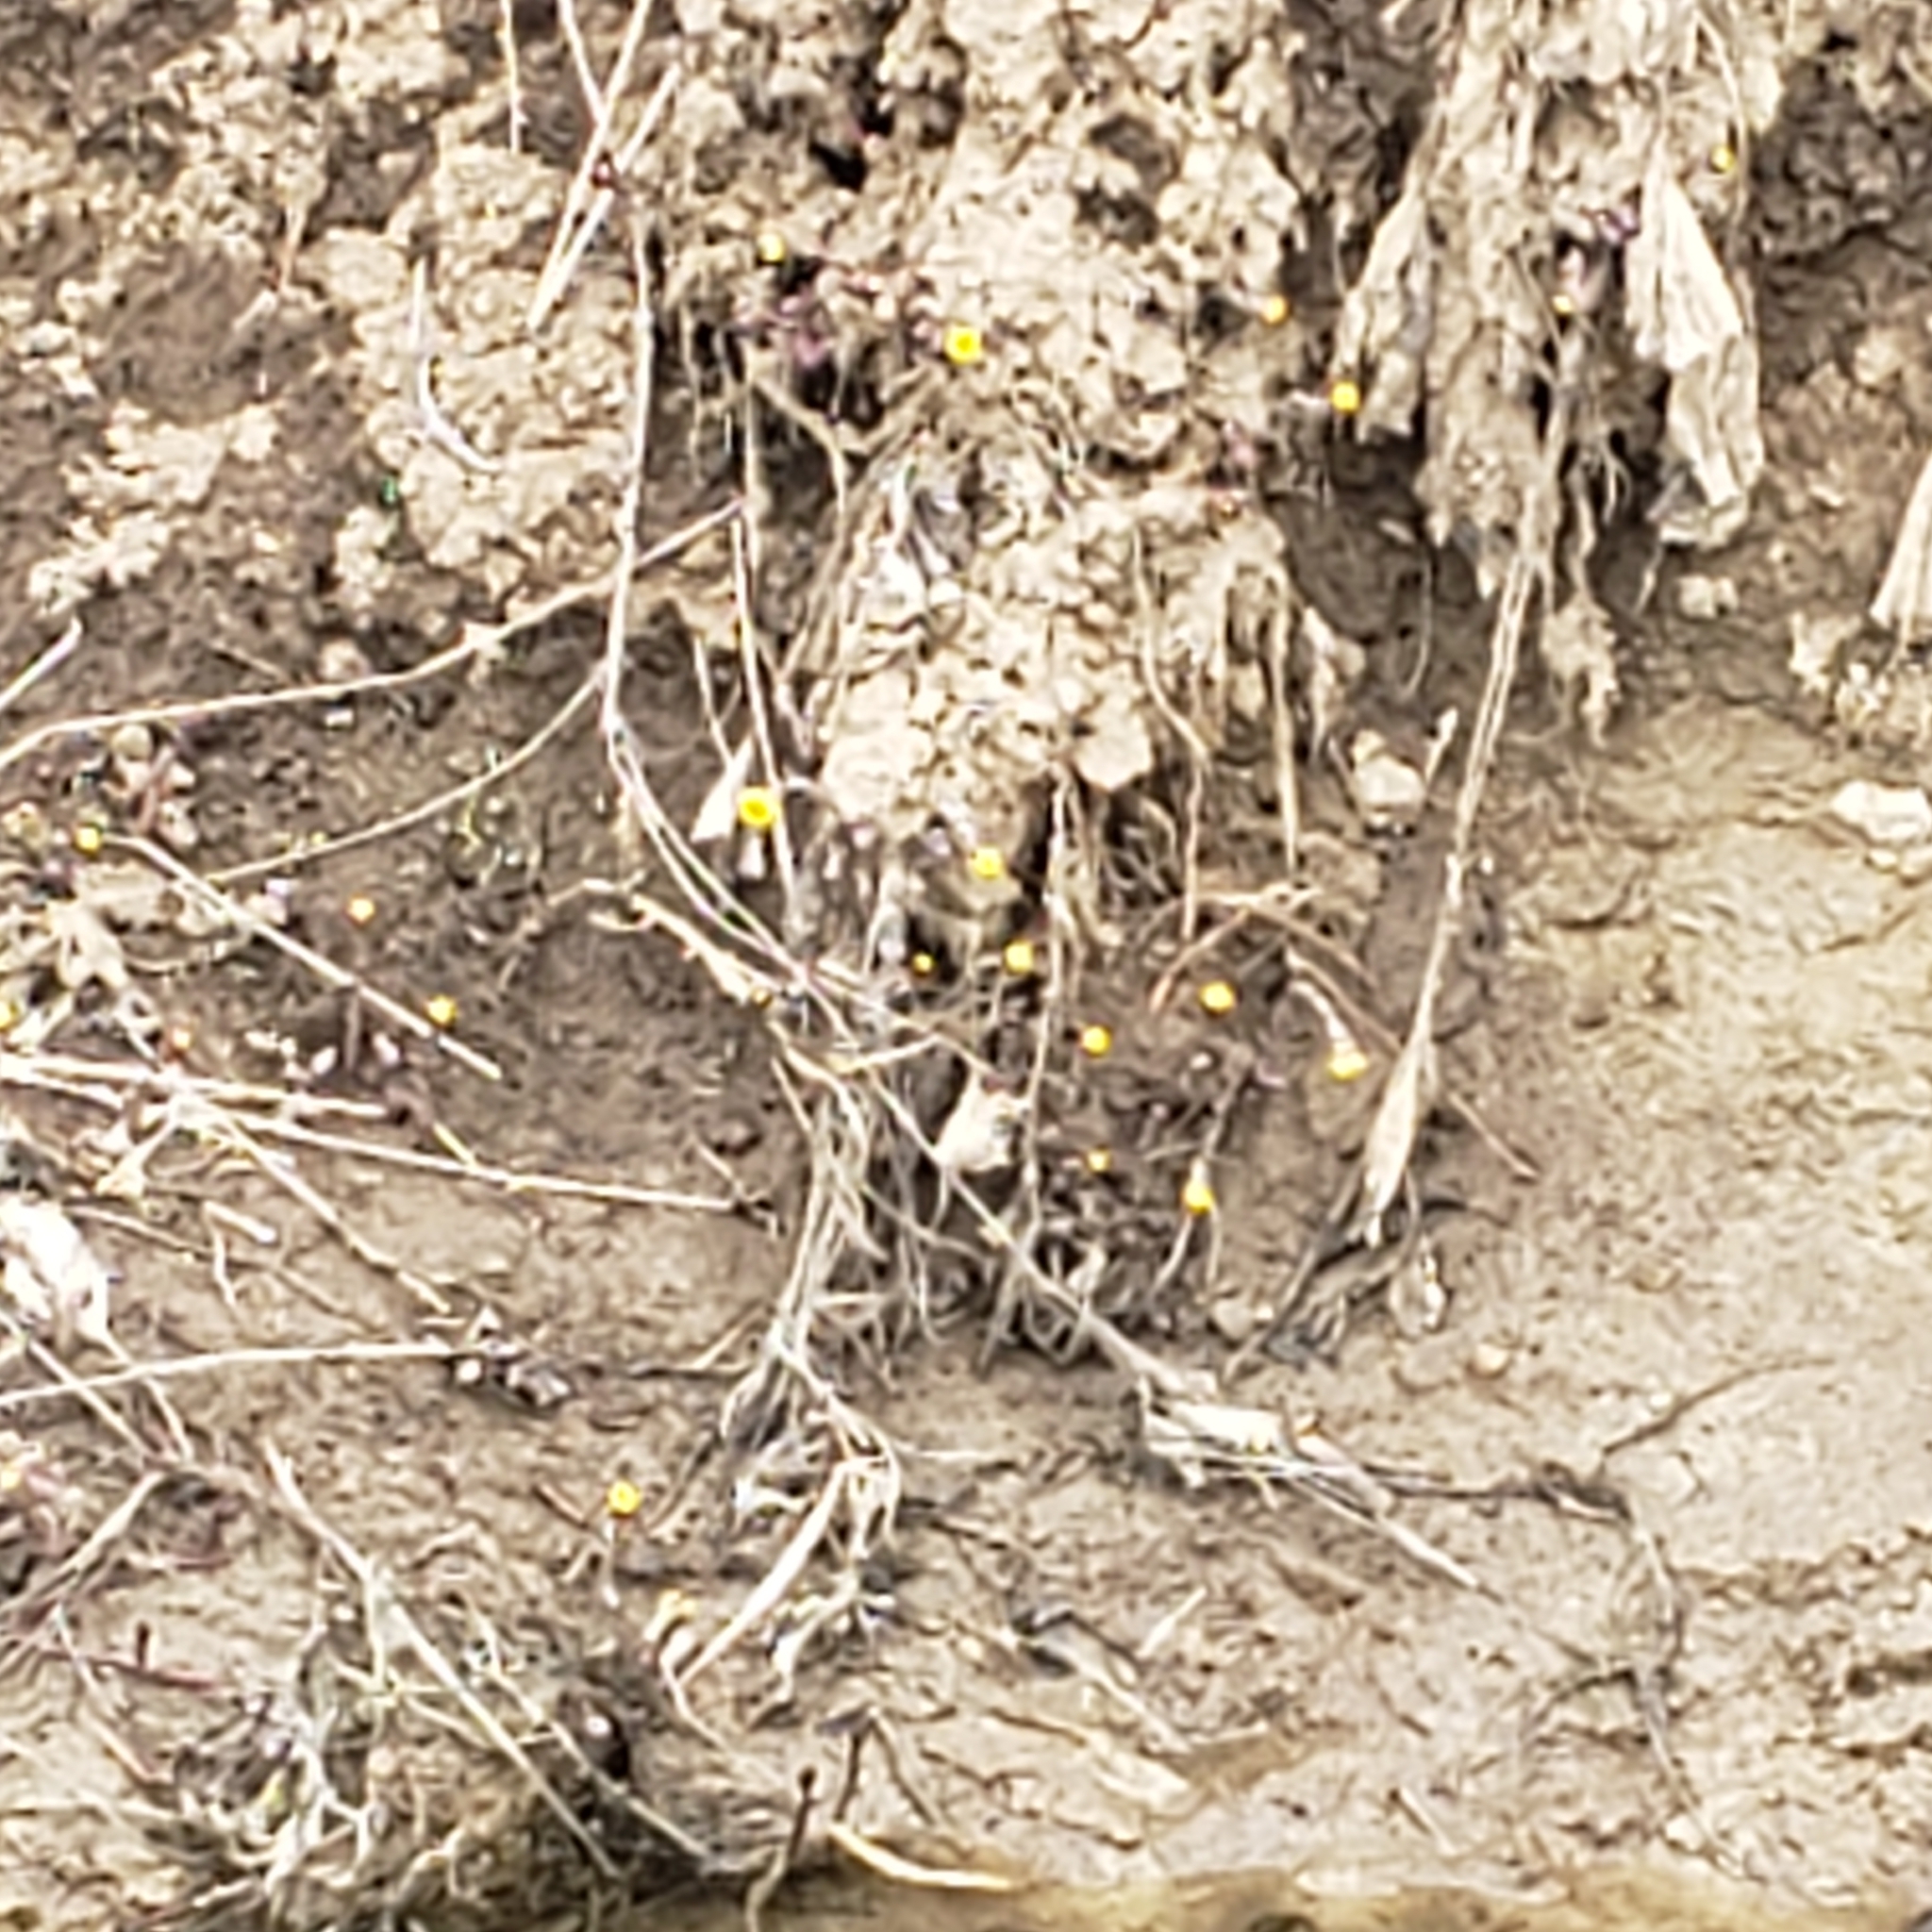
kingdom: Plantae
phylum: Tracheophyta
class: Magnoliopsida
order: Asterales
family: Asteraceae
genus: Tussilago
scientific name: Tussilago farfara
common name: Coltsfoot
